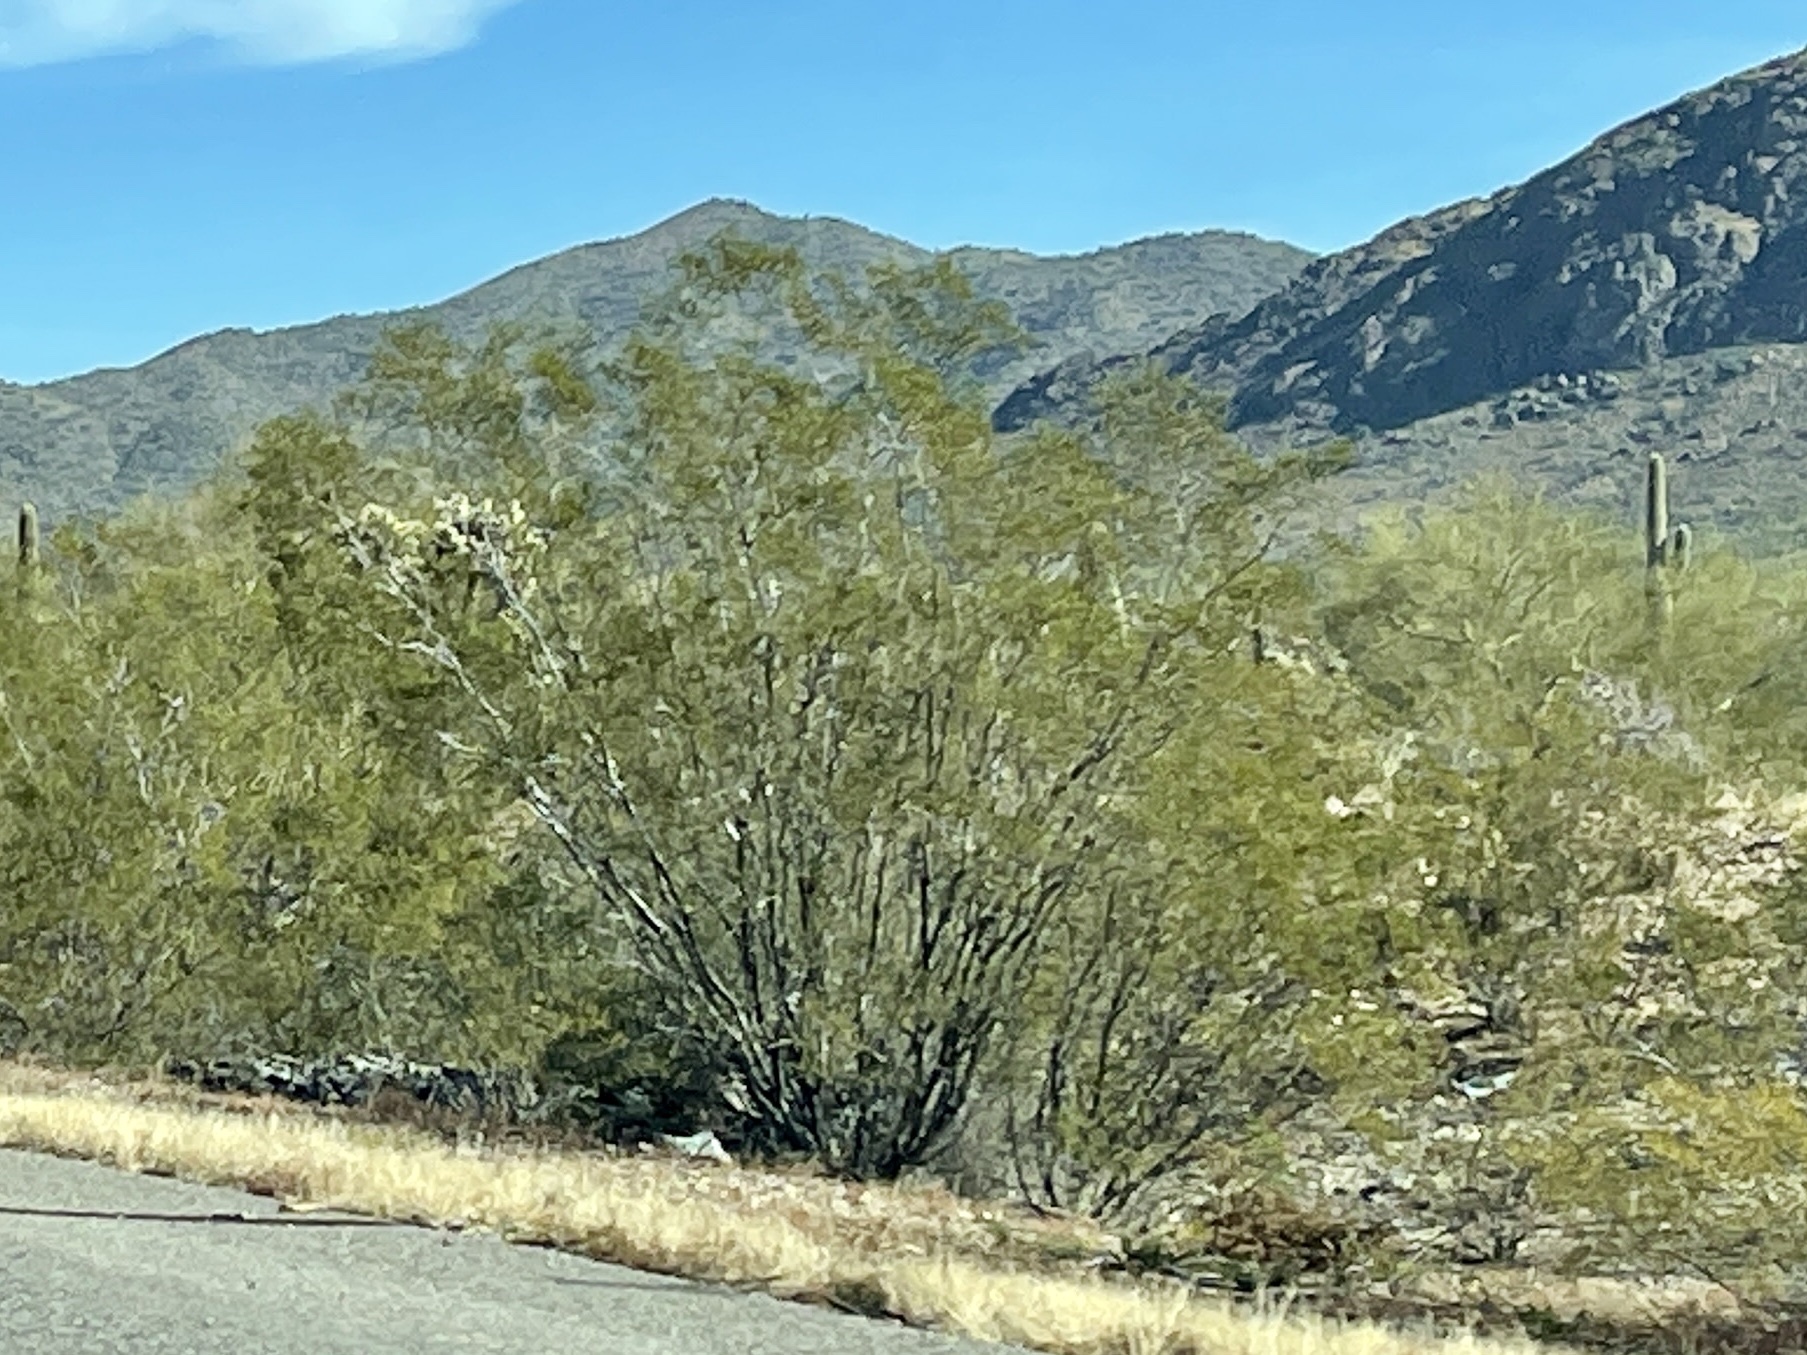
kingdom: Plantae
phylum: Tracheophyta
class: Magnoliopsida
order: Zygophyllales
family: Zygophyllaceae
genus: Larrea
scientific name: Larrea tridentata
